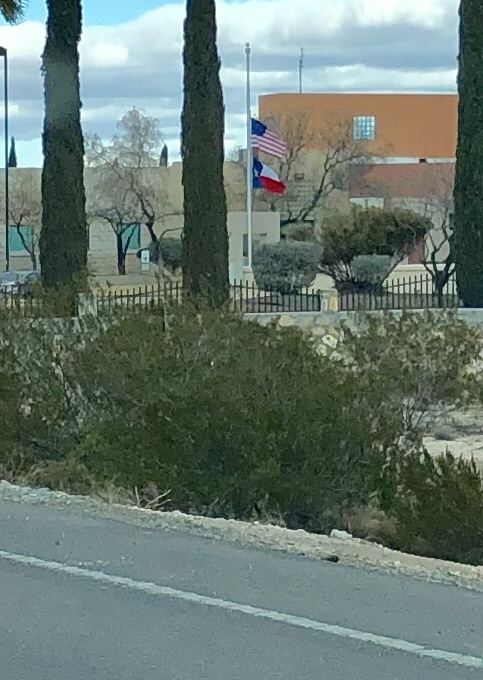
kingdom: Plantae
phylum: Tracheophyta
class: Magnoliopsida
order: Zygophyllales
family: Zygophyllaceae
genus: Larrea
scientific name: Larrea tridentata
